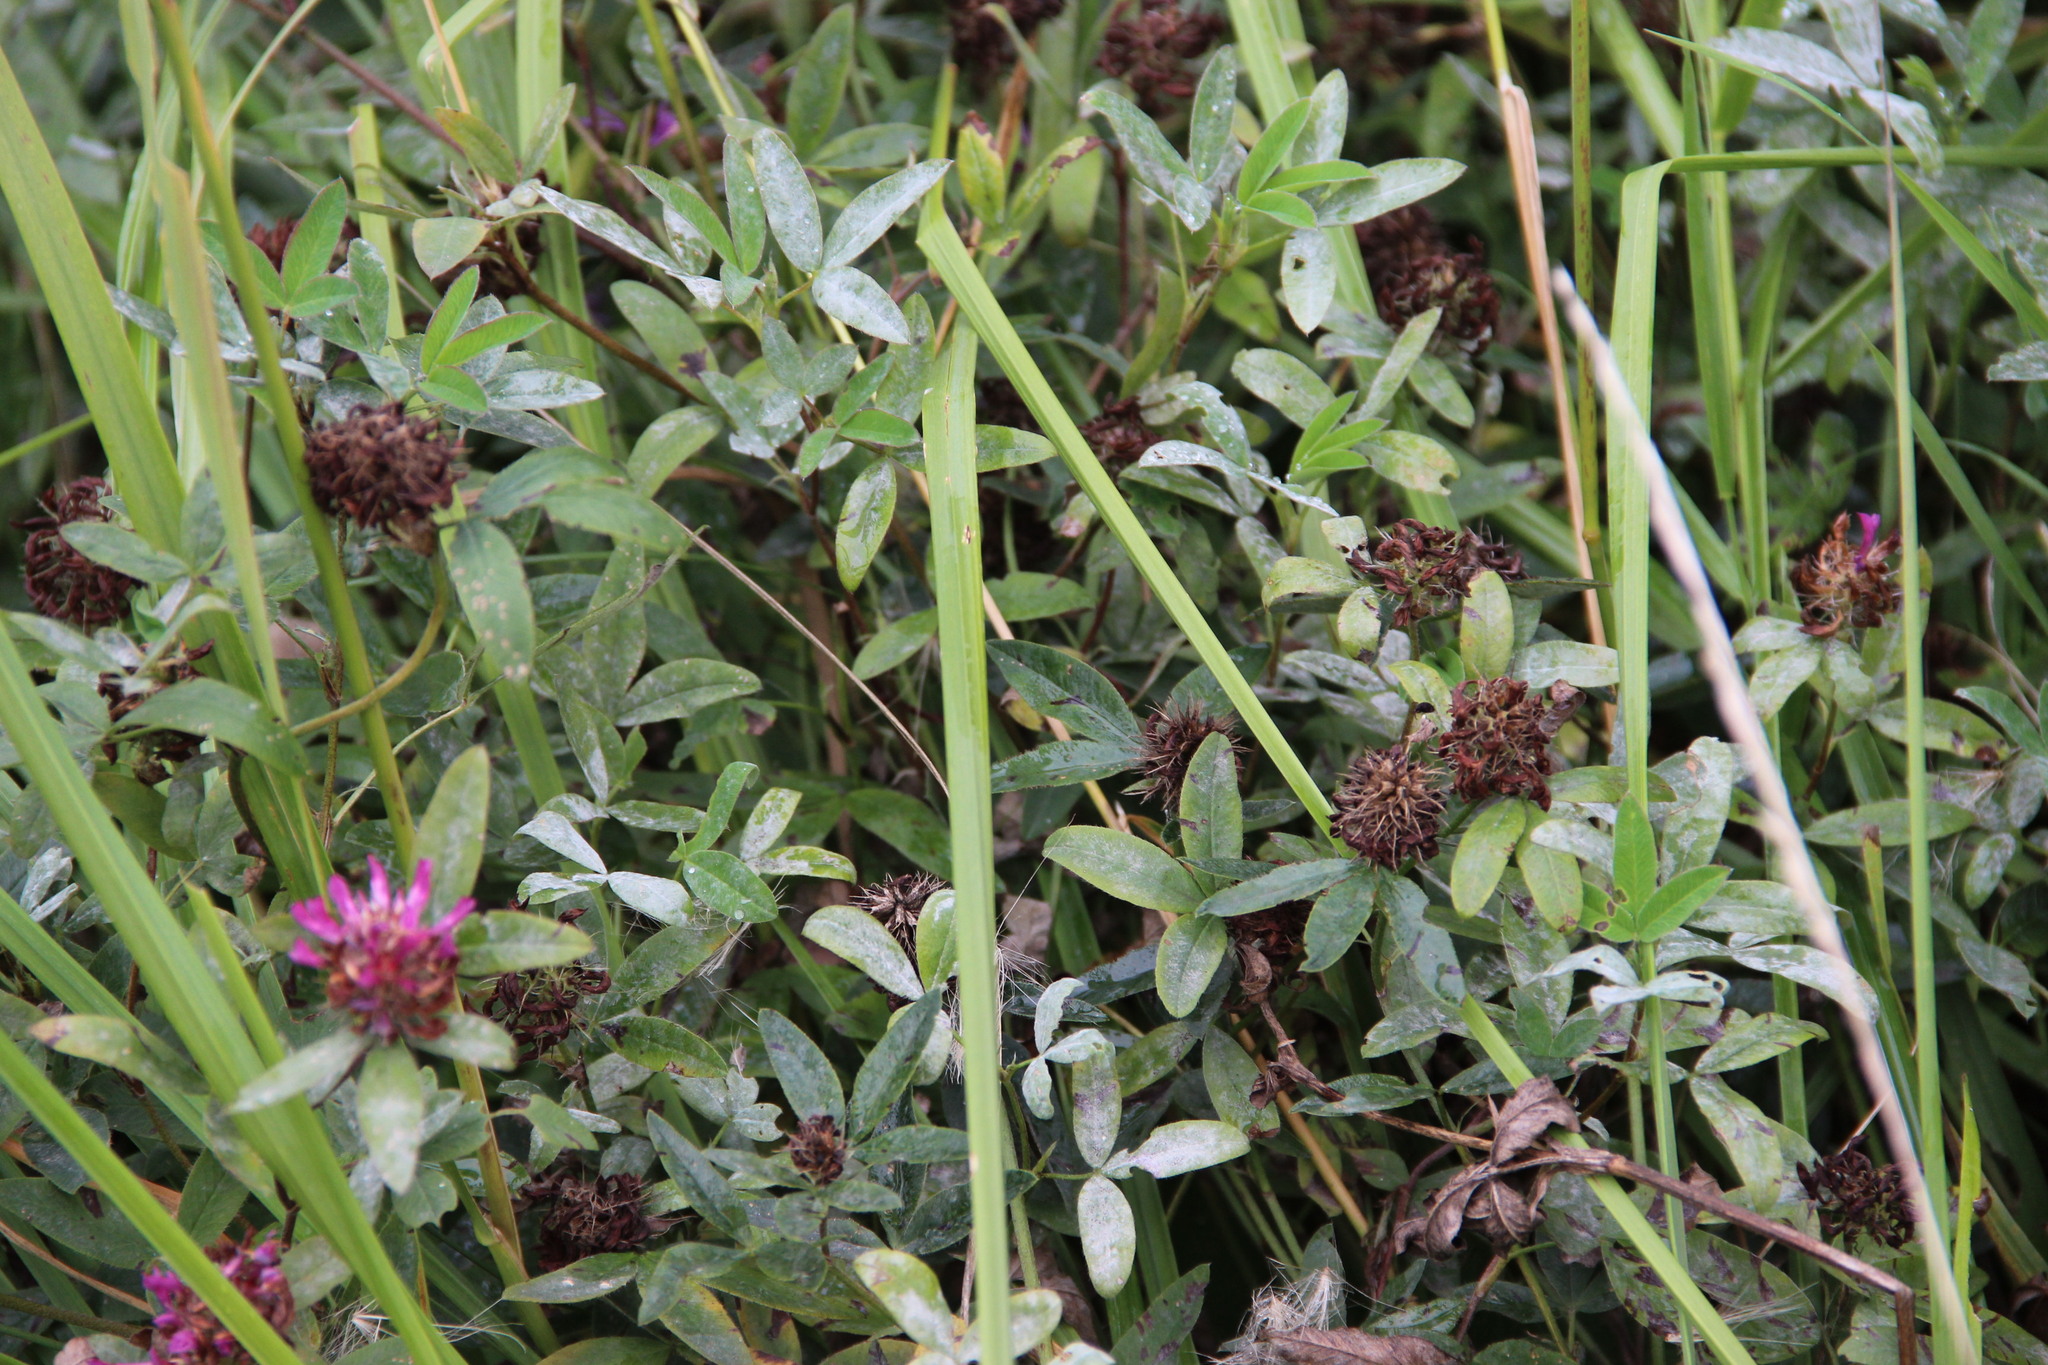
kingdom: Plantae
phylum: Tracheophyta
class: Magnoliopsida
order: Fabales
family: Fabaceae
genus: Trifolium
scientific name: Trifolium medium
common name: Zigzag clover
